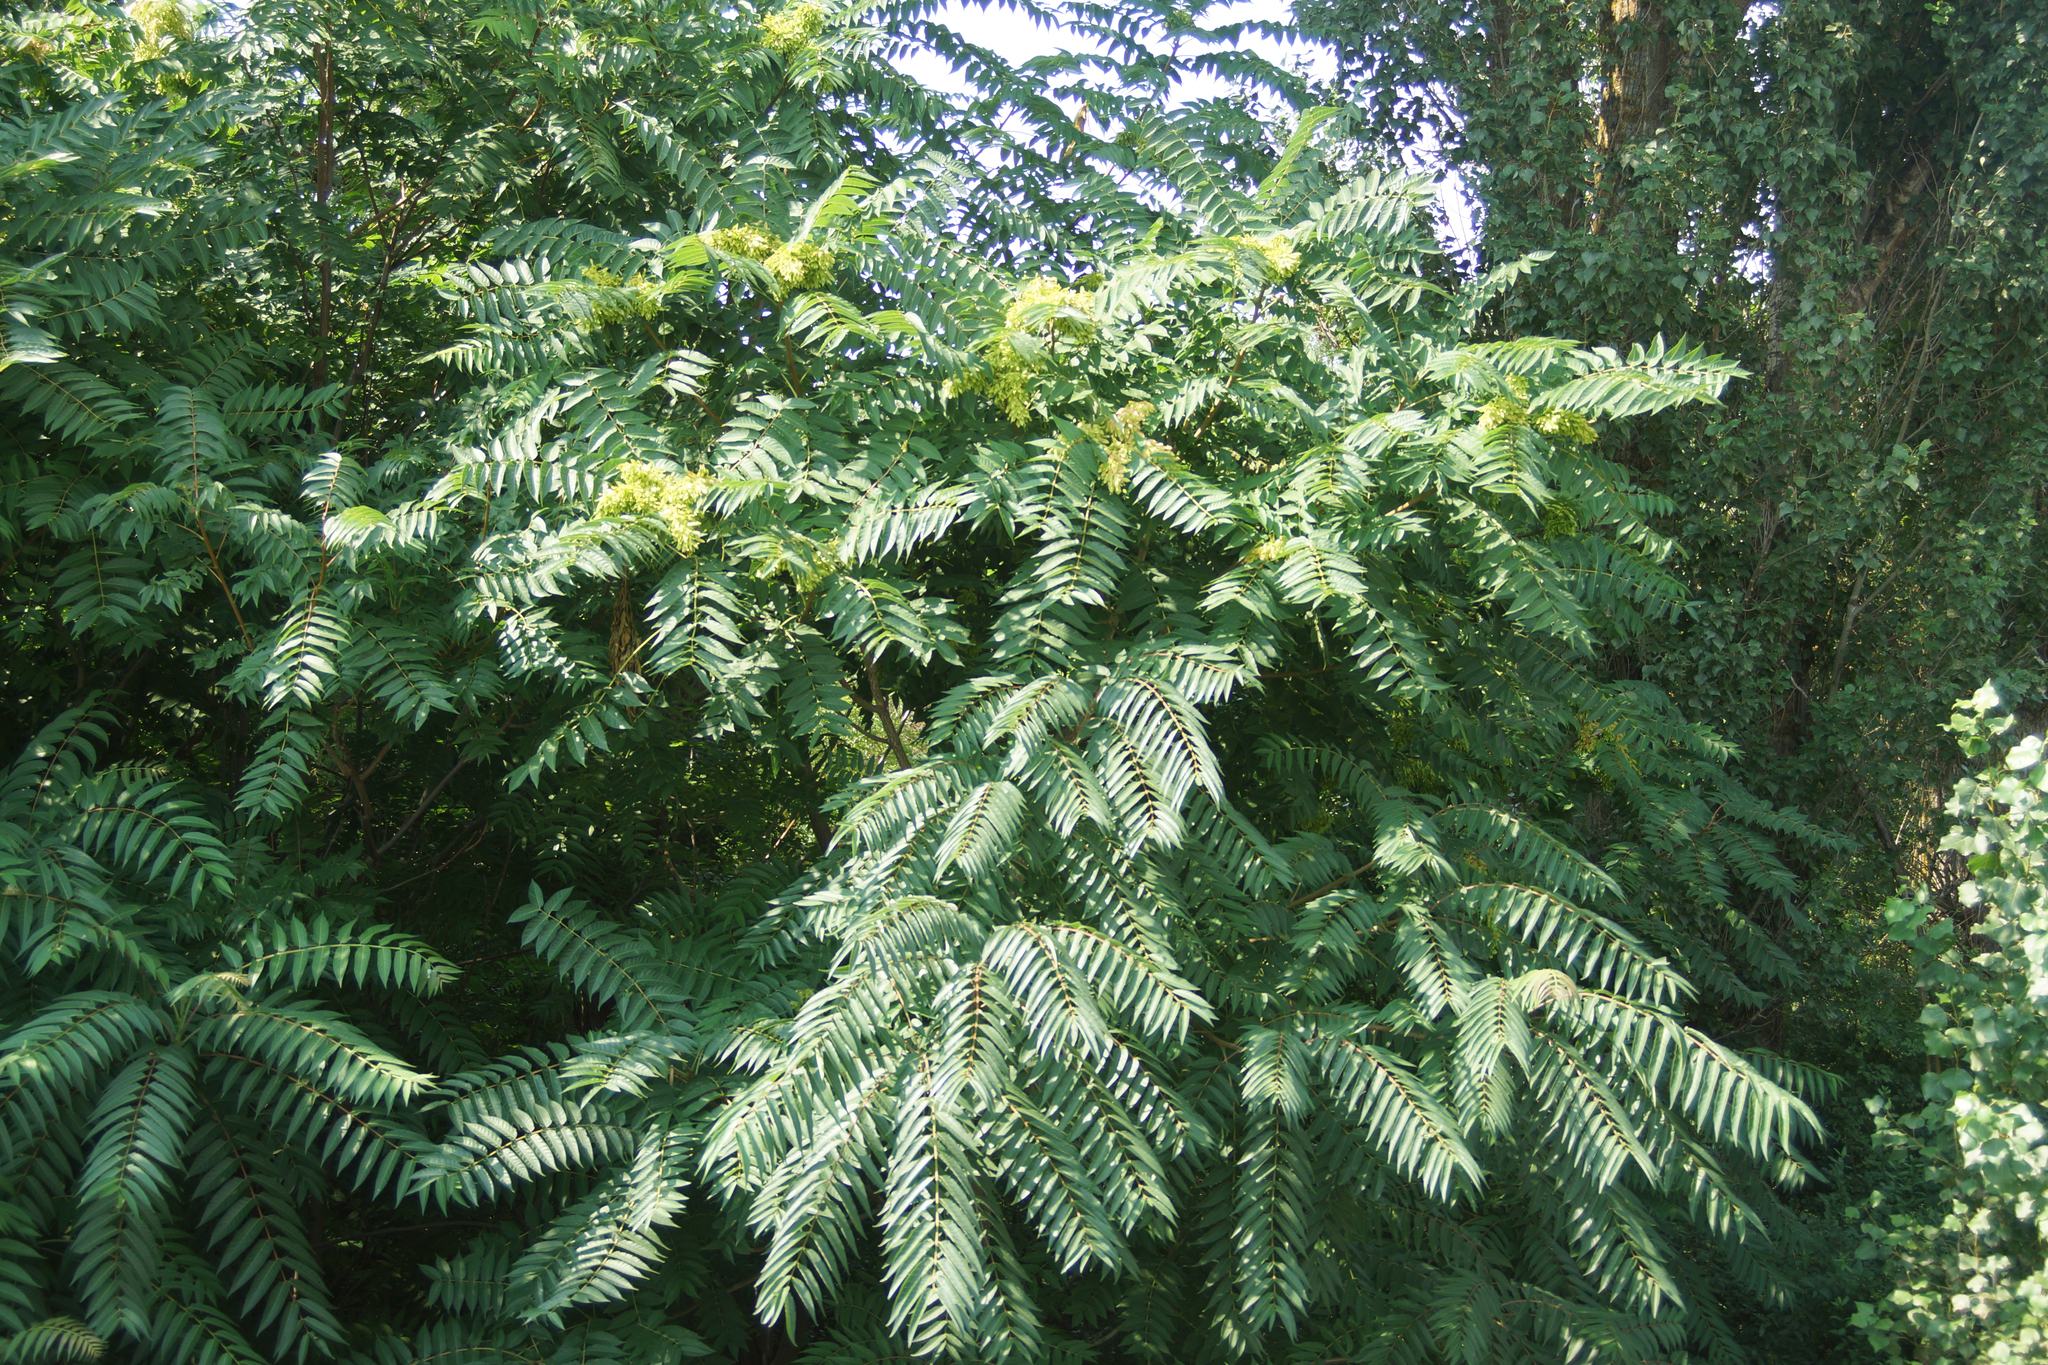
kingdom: Plantae
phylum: Tracheophyta
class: Magnoliopsida
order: Sapindales
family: Simaroubaceae
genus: Ailanthus
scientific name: Ailanthus altissima
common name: Tree-of-heaven
